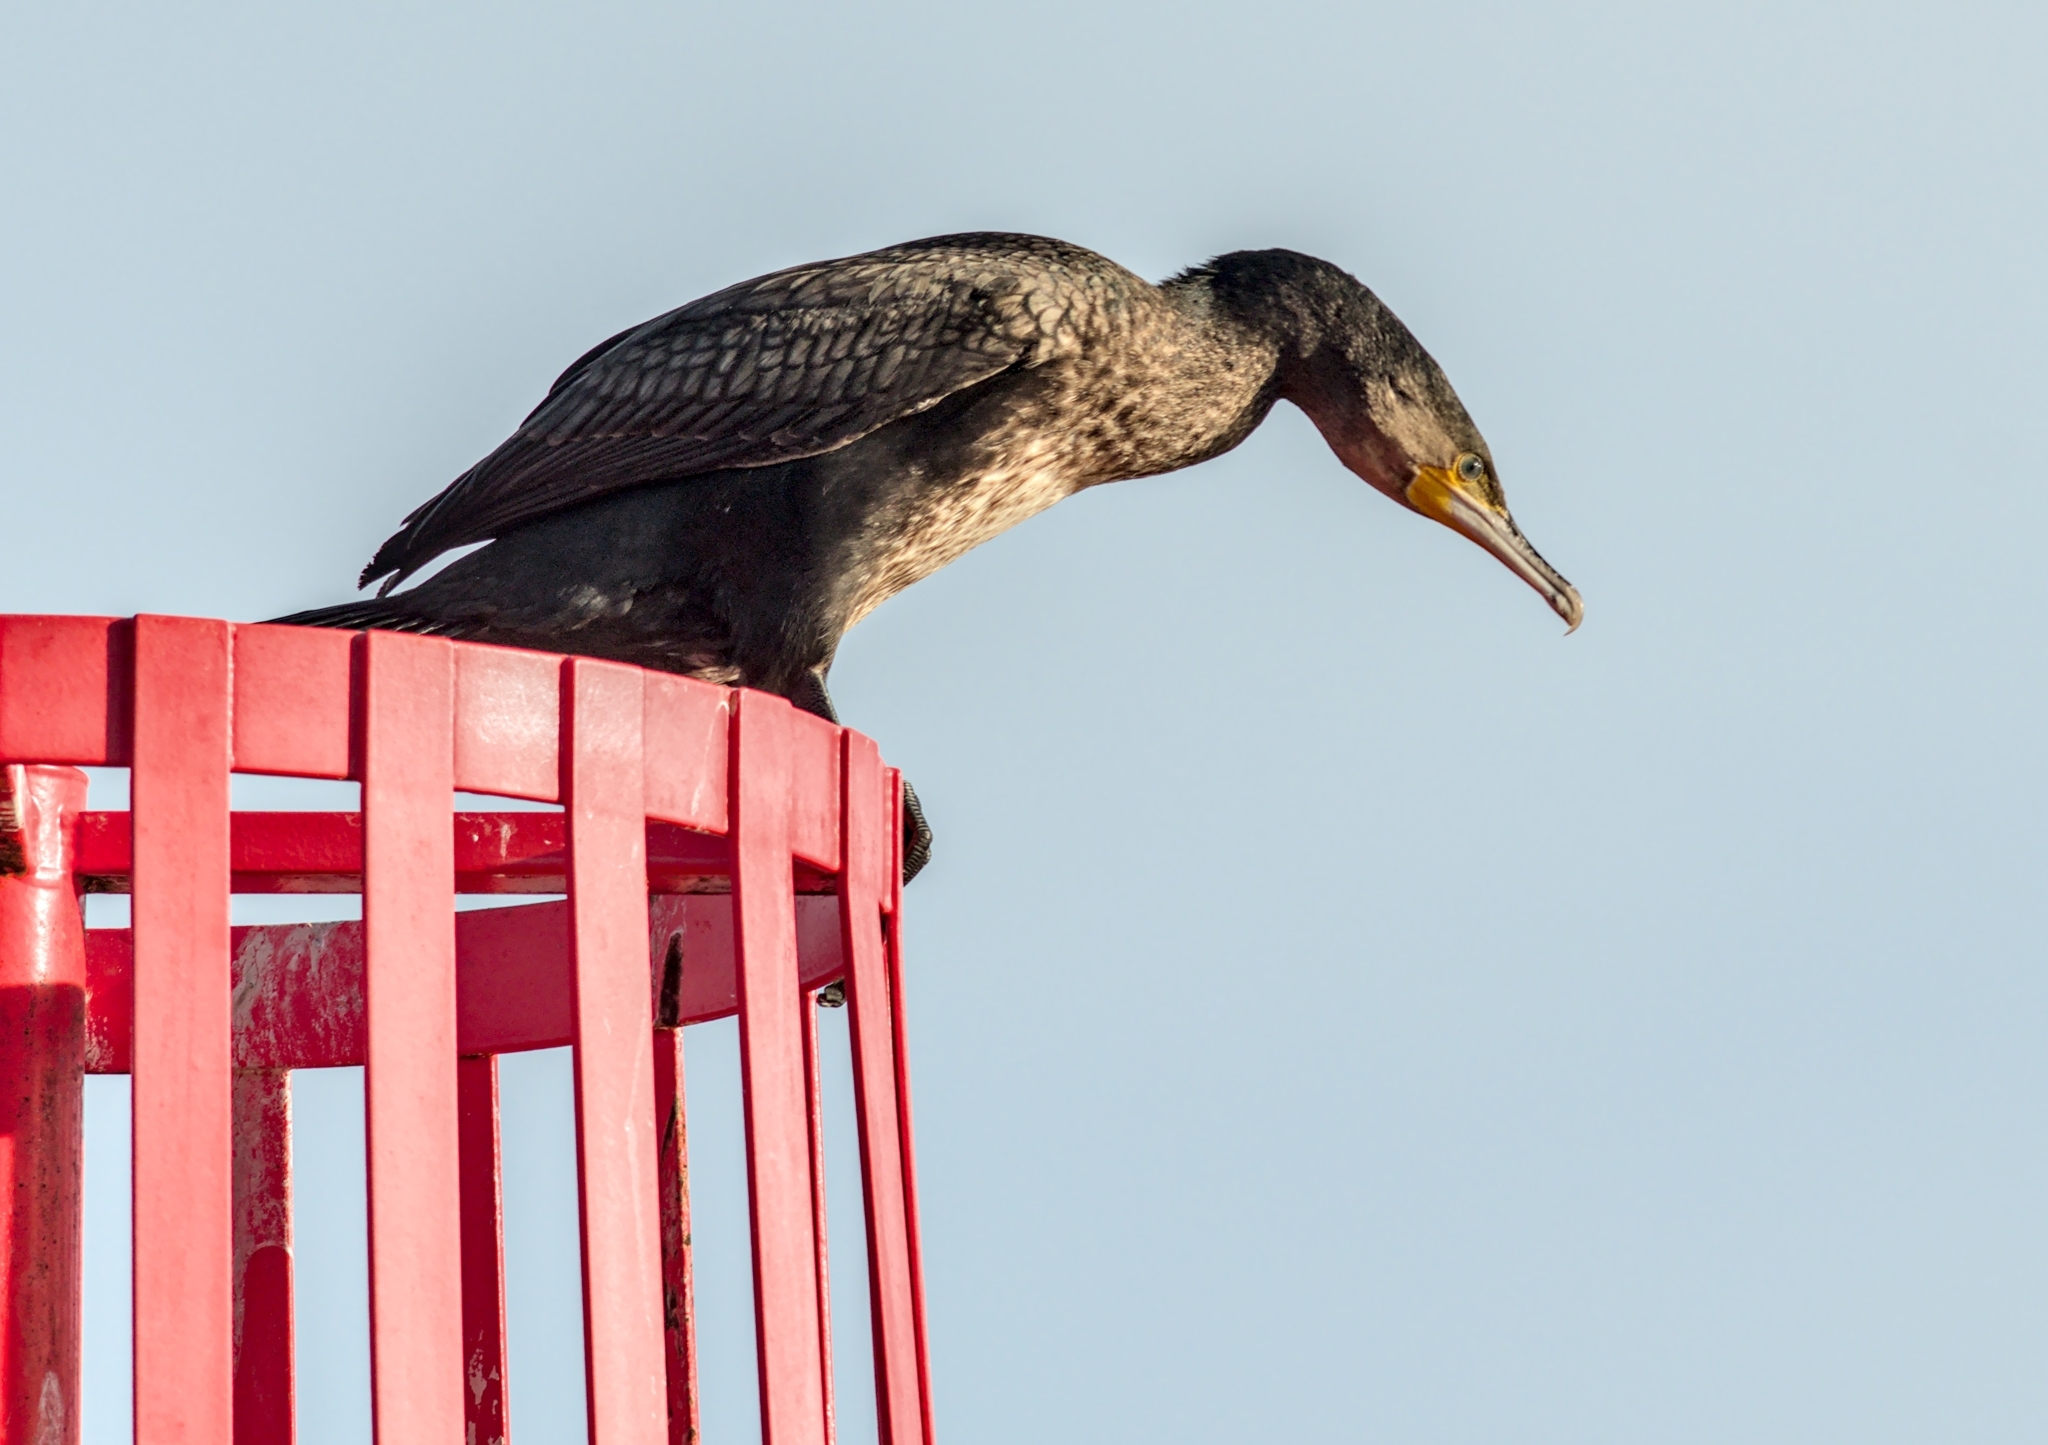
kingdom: Animalia
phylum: Chordata
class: Aves
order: Suliformes
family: Phalacrocoracidae
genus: Phalacrocorax
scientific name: Phalacrocorax carbo
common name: Great cormorant
